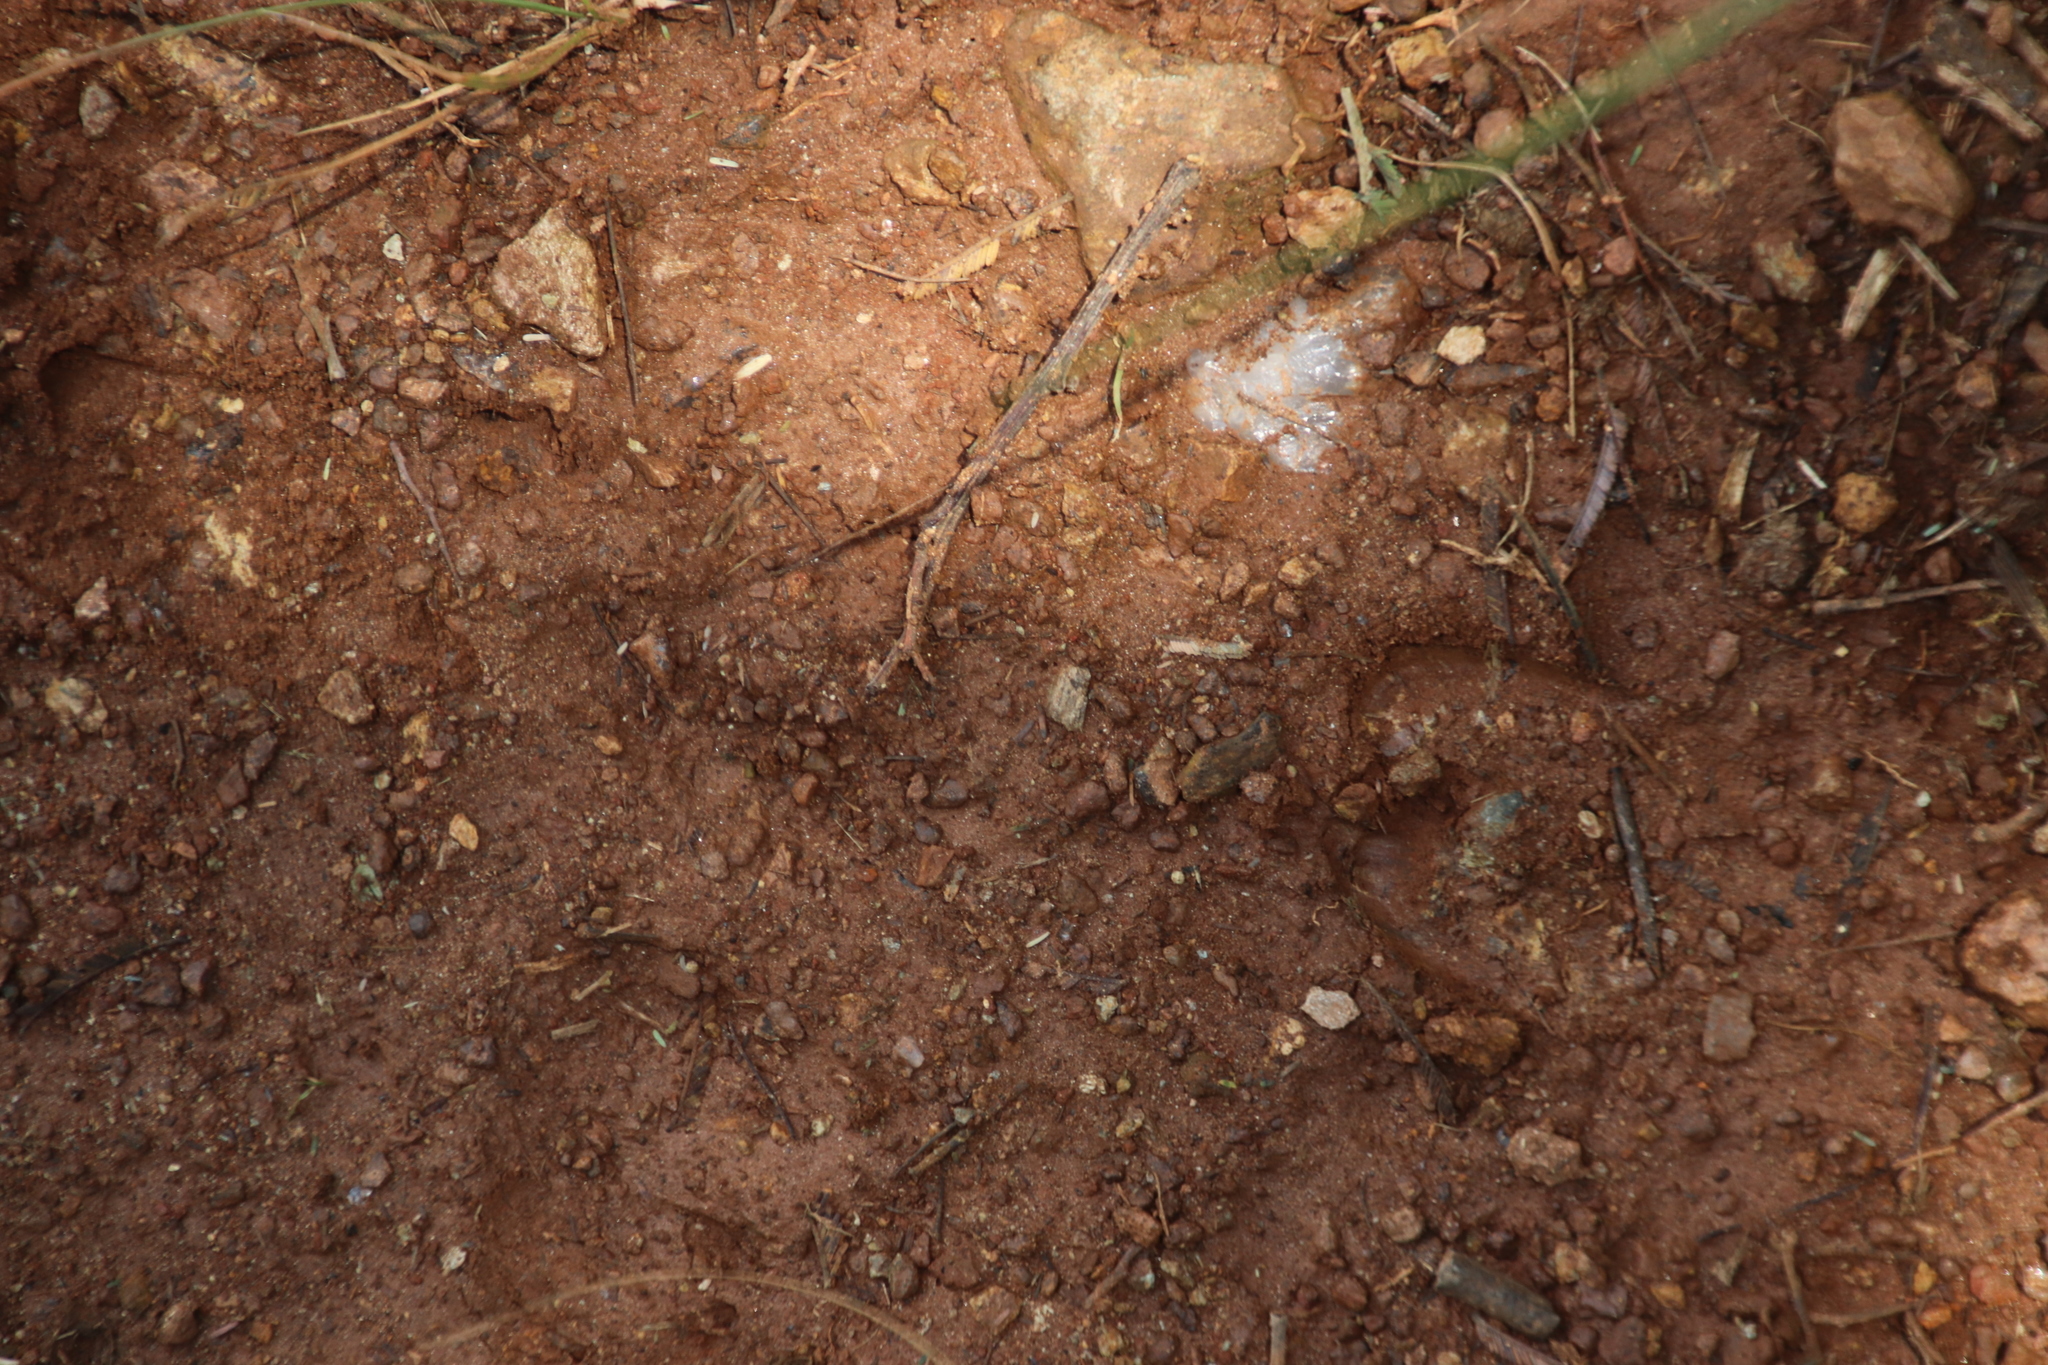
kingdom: Animalia
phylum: Chordata
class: Mammalia
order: Artiodactyla
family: Suidae
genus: Phacochoerus
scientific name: Phacochoerus africanus
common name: Common warthog
